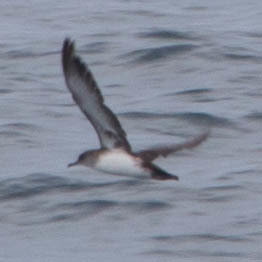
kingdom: Animalia
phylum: Chordata
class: Aves
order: Procellariiformes
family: Procellariidae
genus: Puffinus
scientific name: Puffinus opisthomelas
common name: Black-vented shearwater
